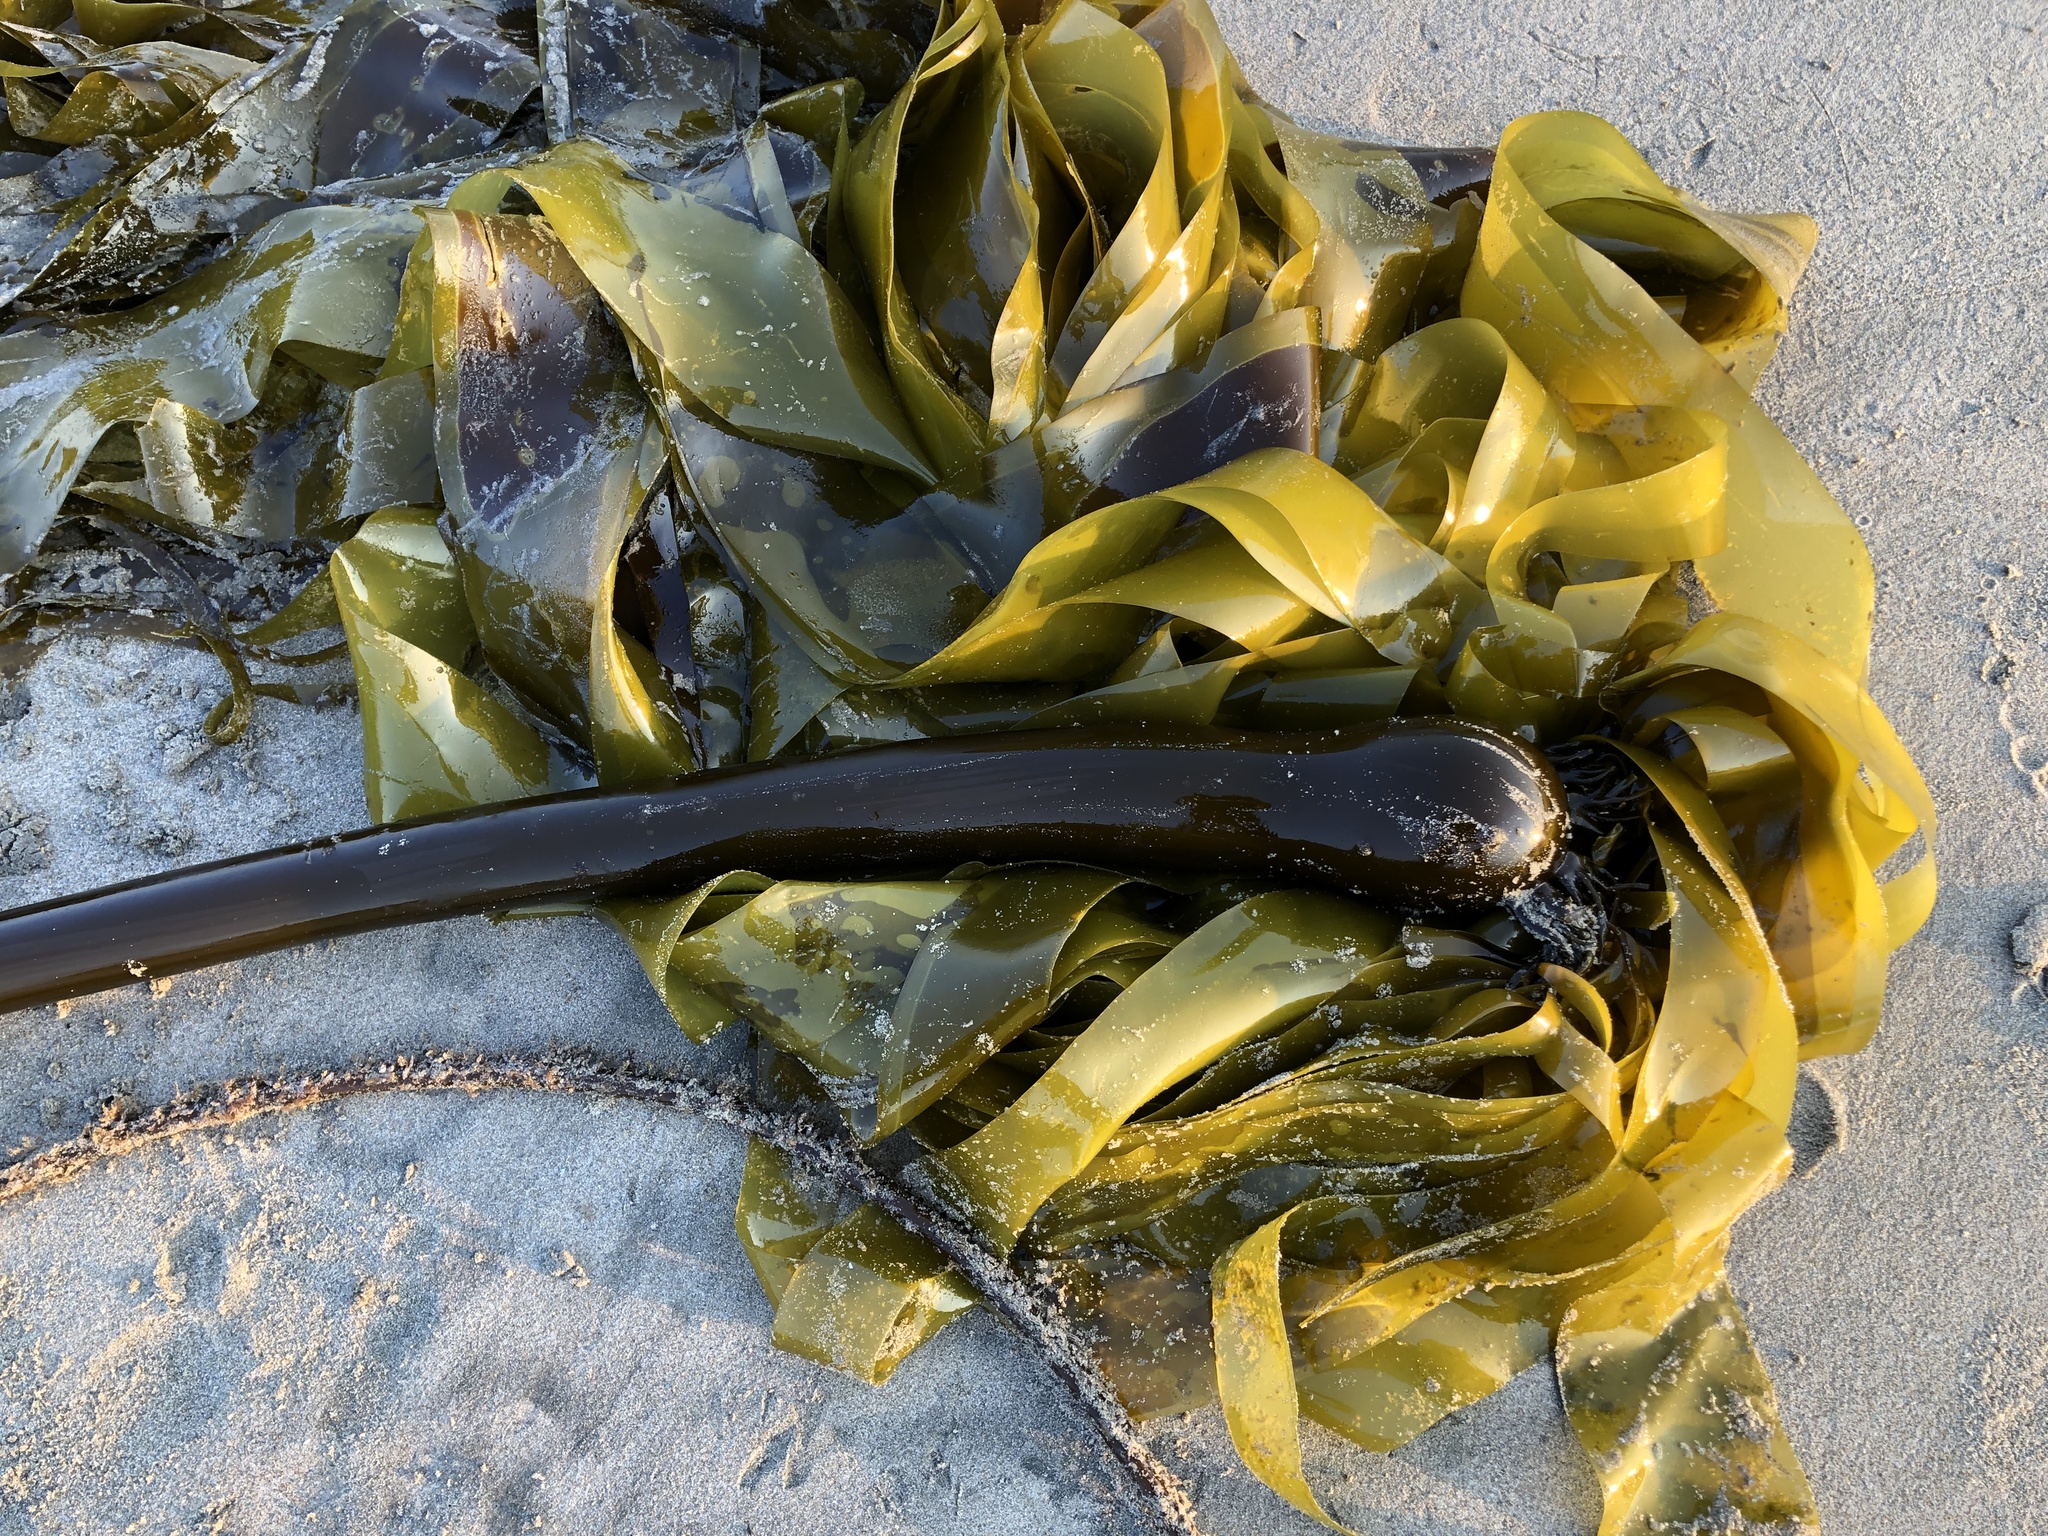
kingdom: Chromista
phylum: Ochrophyta
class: Phaeophyceae
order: Laminariales
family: Laminariaceae
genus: Nereocystis
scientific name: Nereocystis luetkeana
